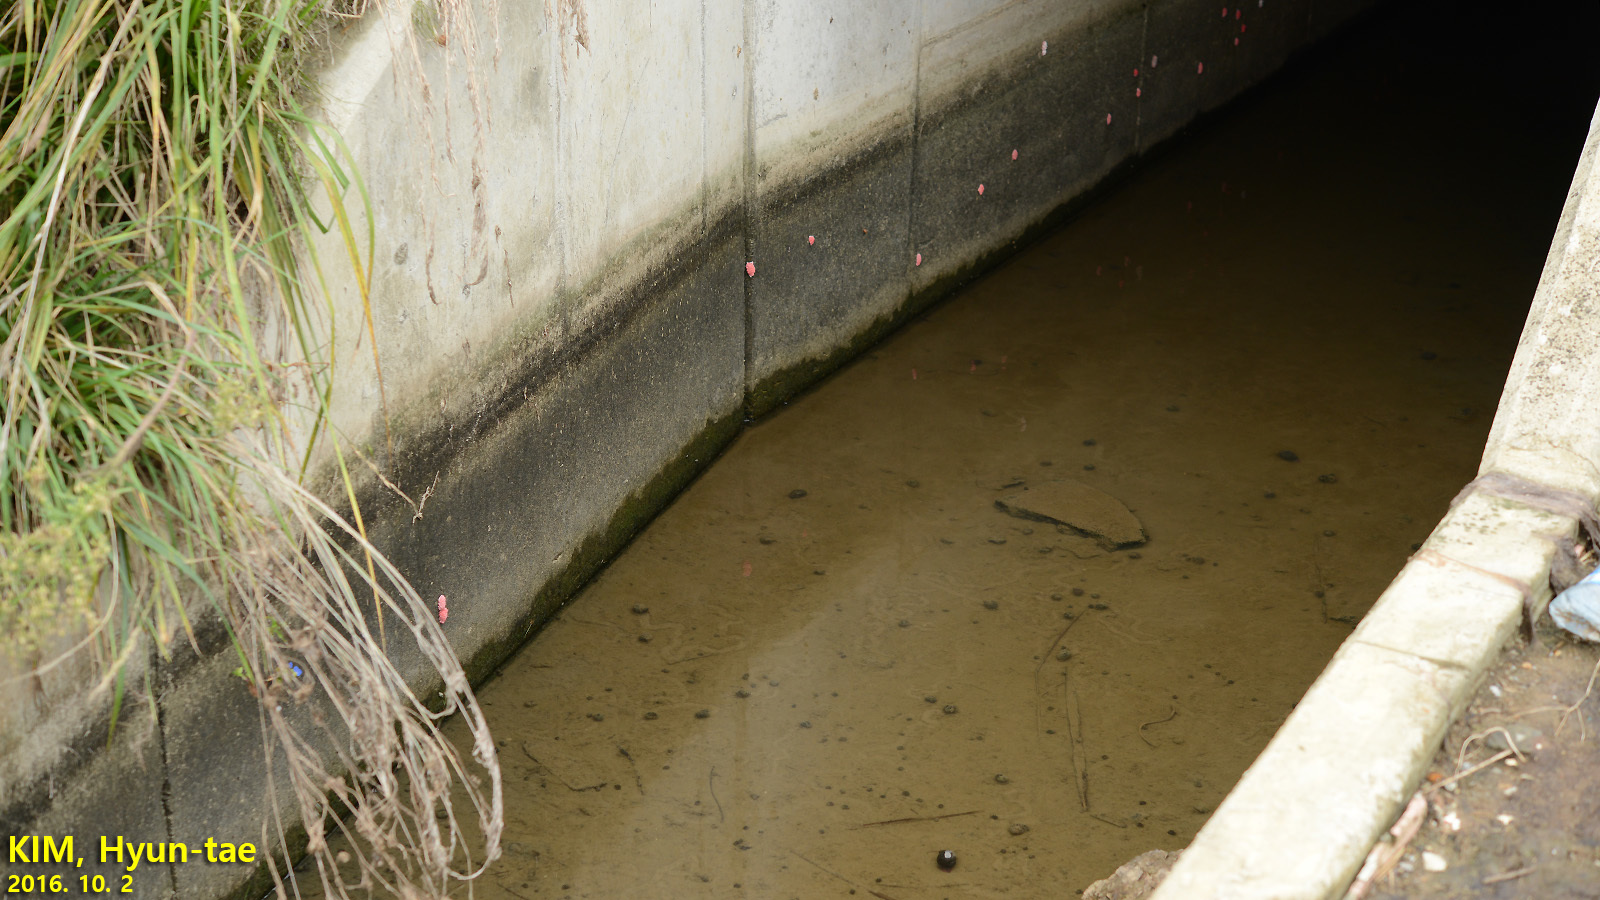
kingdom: Animalia
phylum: Mollusca
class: Gastropoda
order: Architaenioglossa
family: Ampullariidae
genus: Pomacea
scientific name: Pomacea canaliculata
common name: Channeled applesnail
